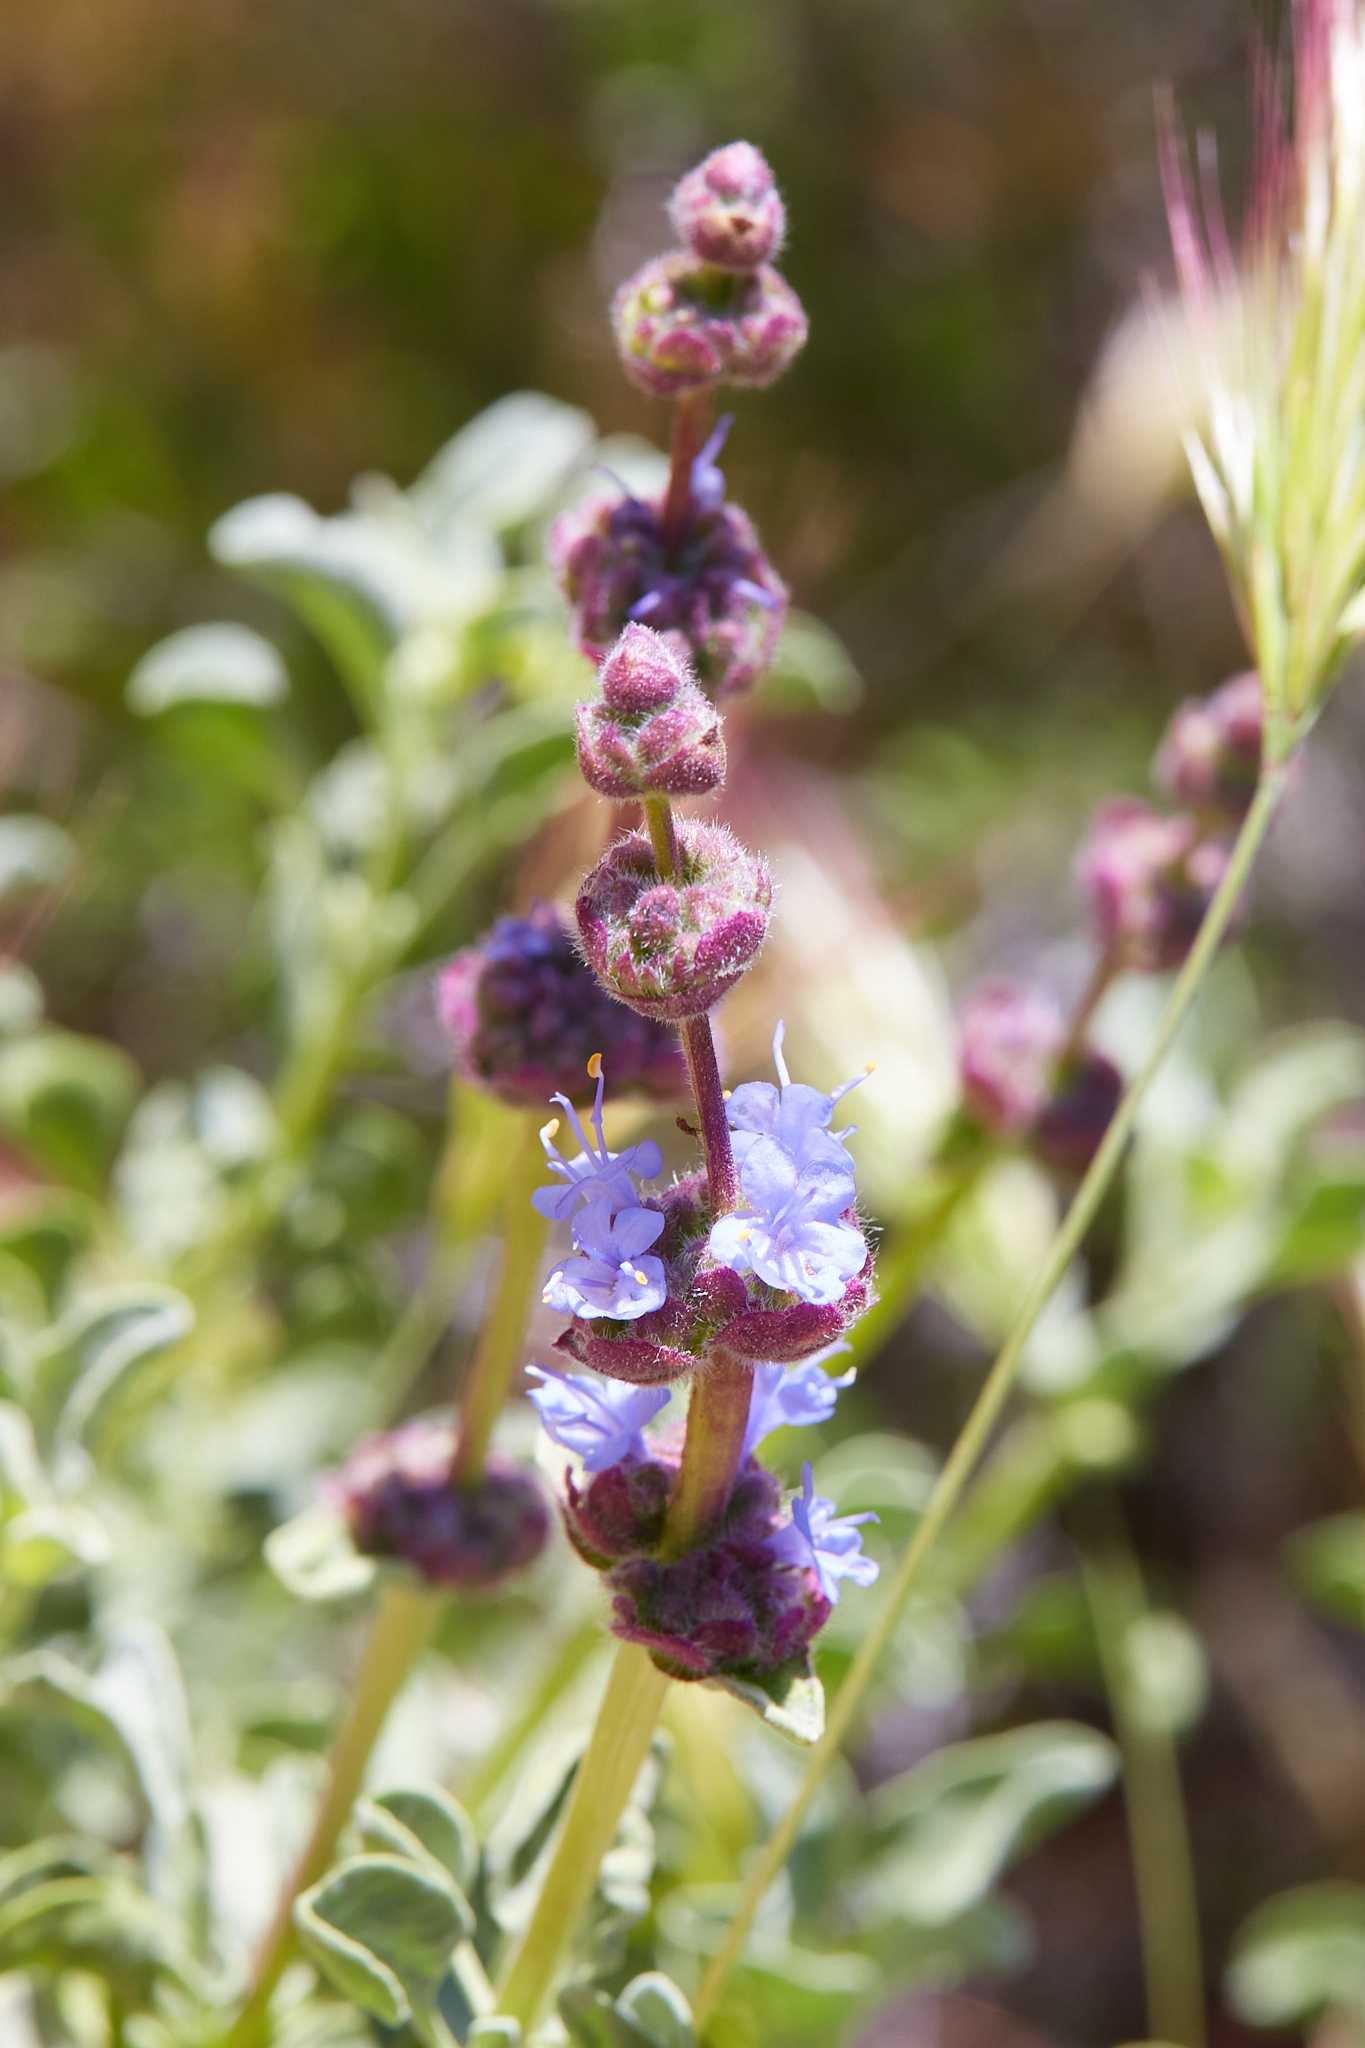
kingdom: Plantae
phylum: Tracheophyta
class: Magnoliopsida
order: Lamiales
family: Lamiaceae
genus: Salvia
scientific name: Salvia dorrii
